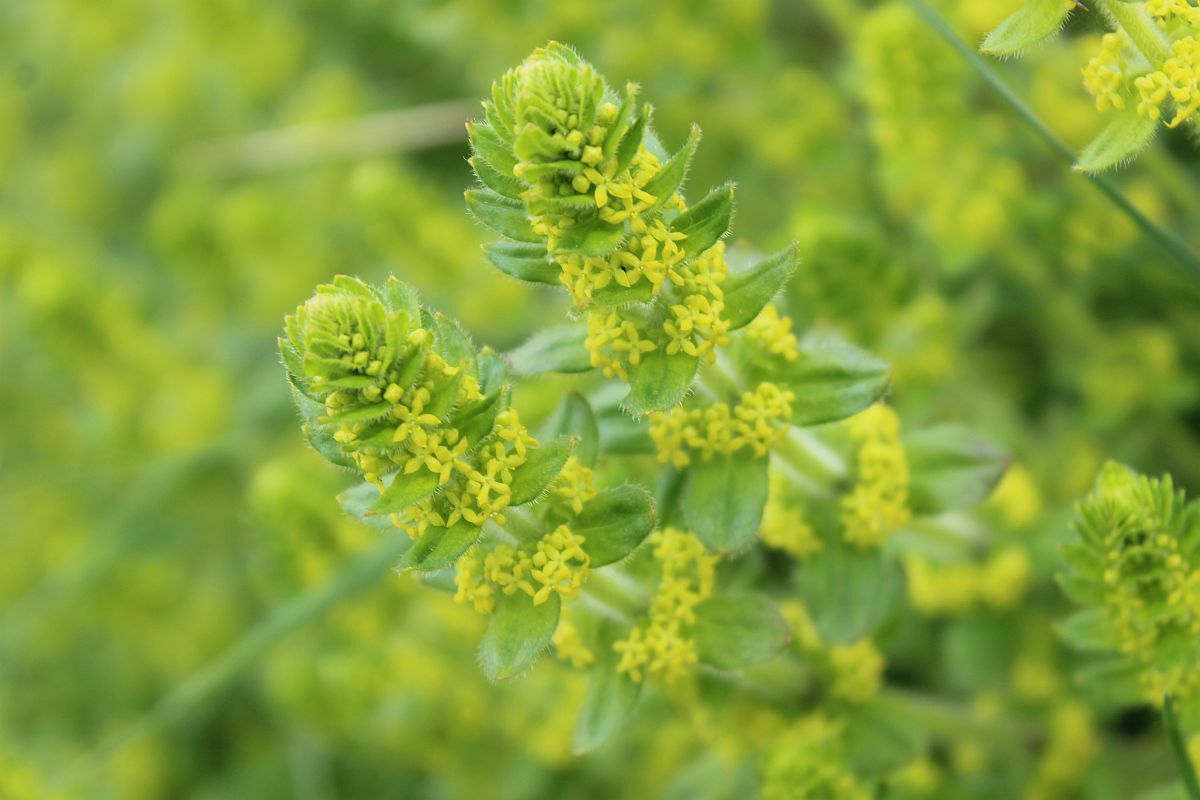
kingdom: Plantae
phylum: Tracheophyta
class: Magnoliopsida
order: Gentianales
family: Rubiaceae
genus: Cruciata
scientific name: Cruciata laevipes
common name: Crosswort
